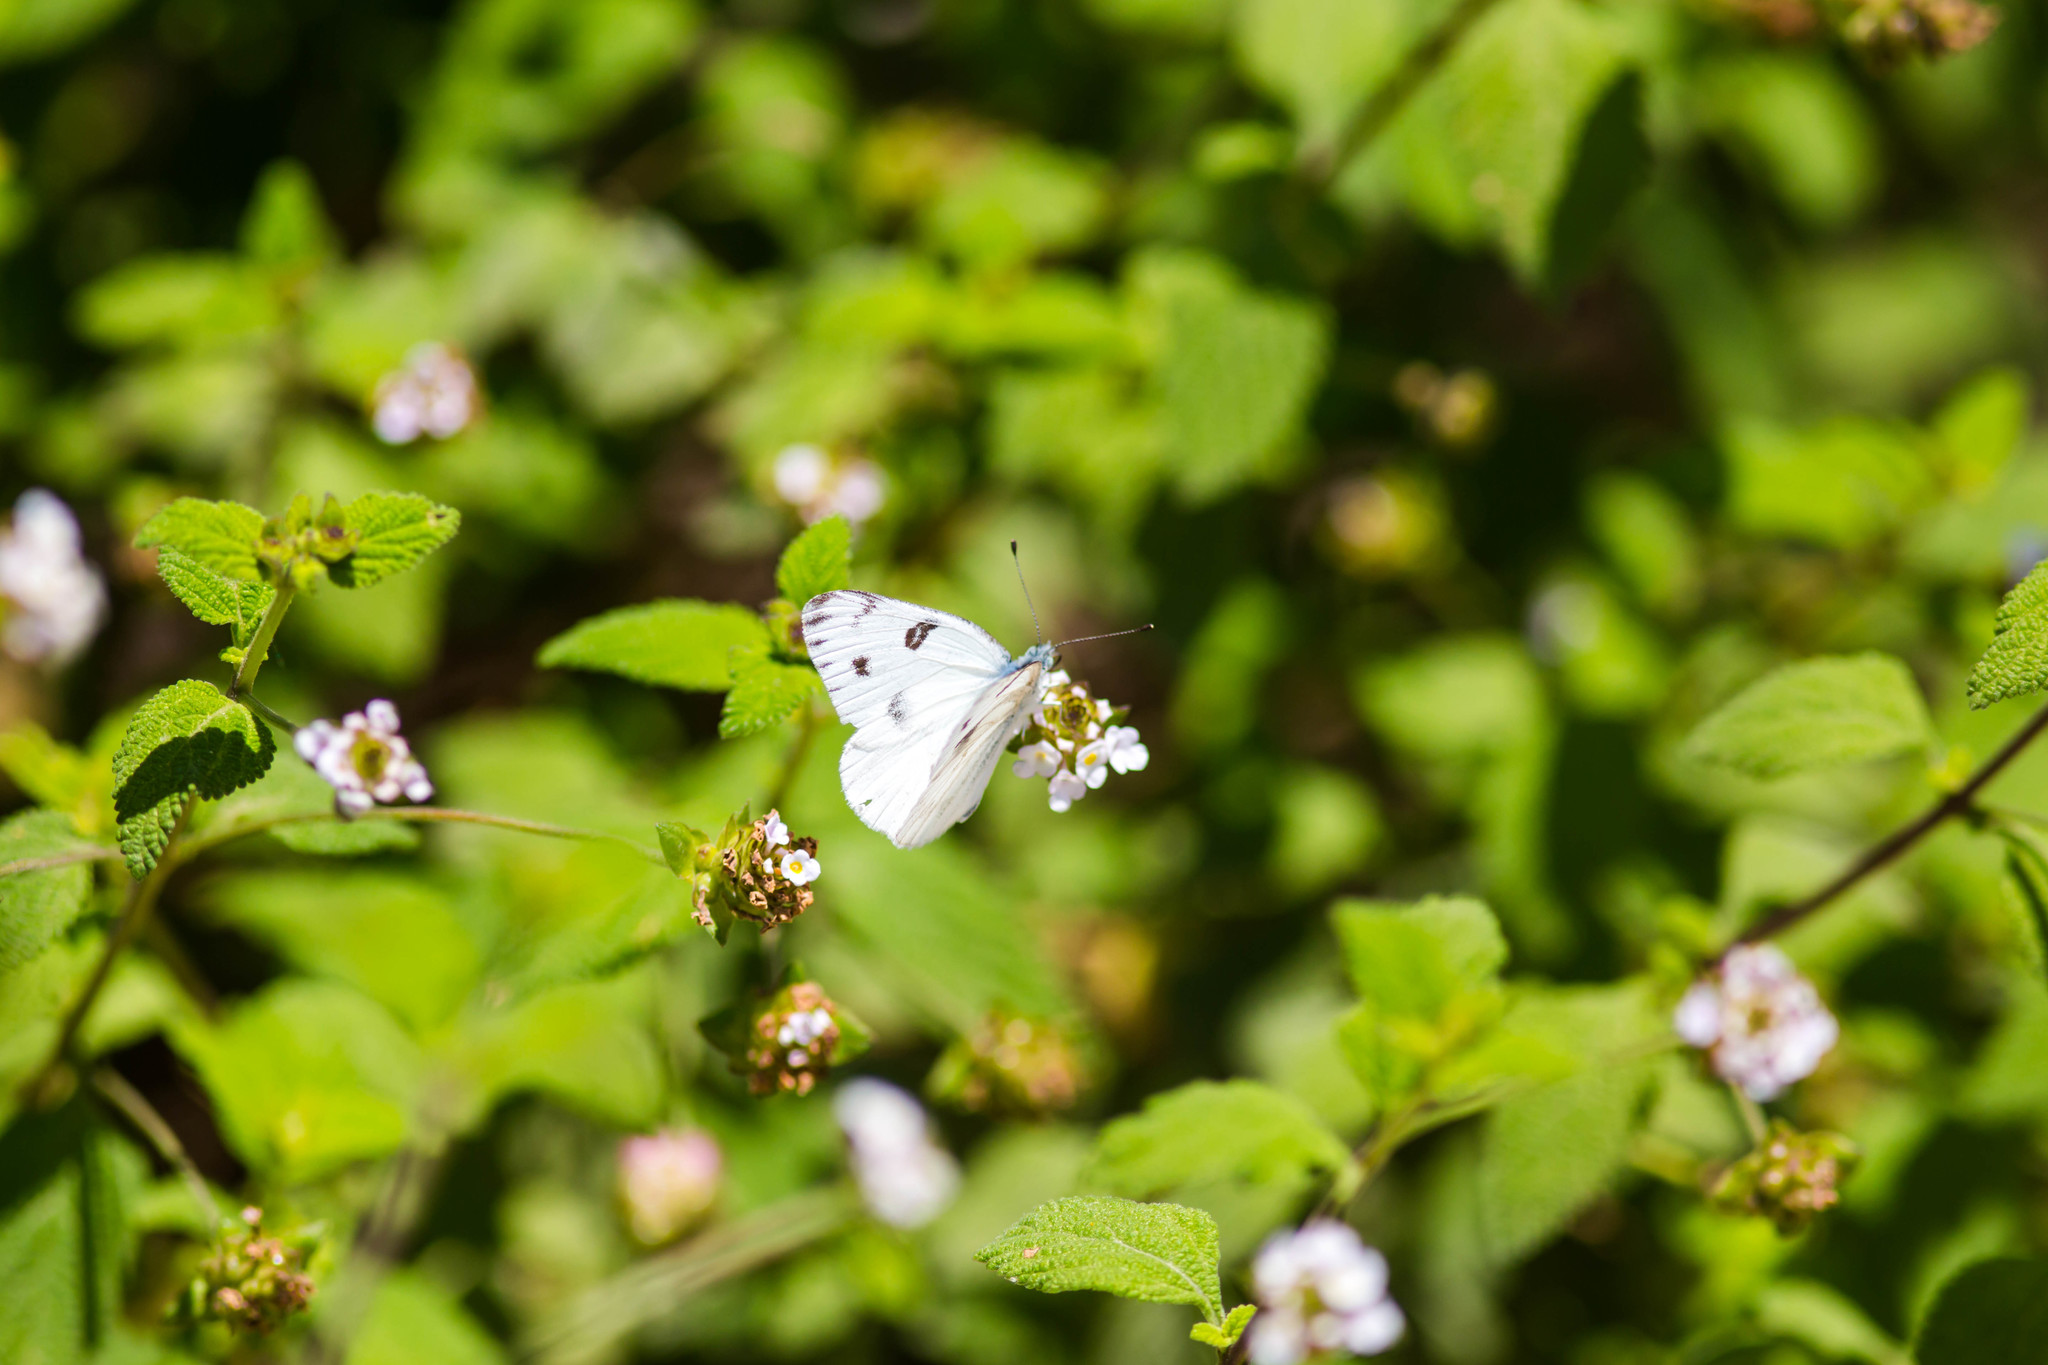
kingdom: Animalia
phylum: Arthropoda
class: Insecta
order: Lepidoptera
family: Pieridae
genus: Pontia
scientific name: Pontia protodice
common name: Checkered white
